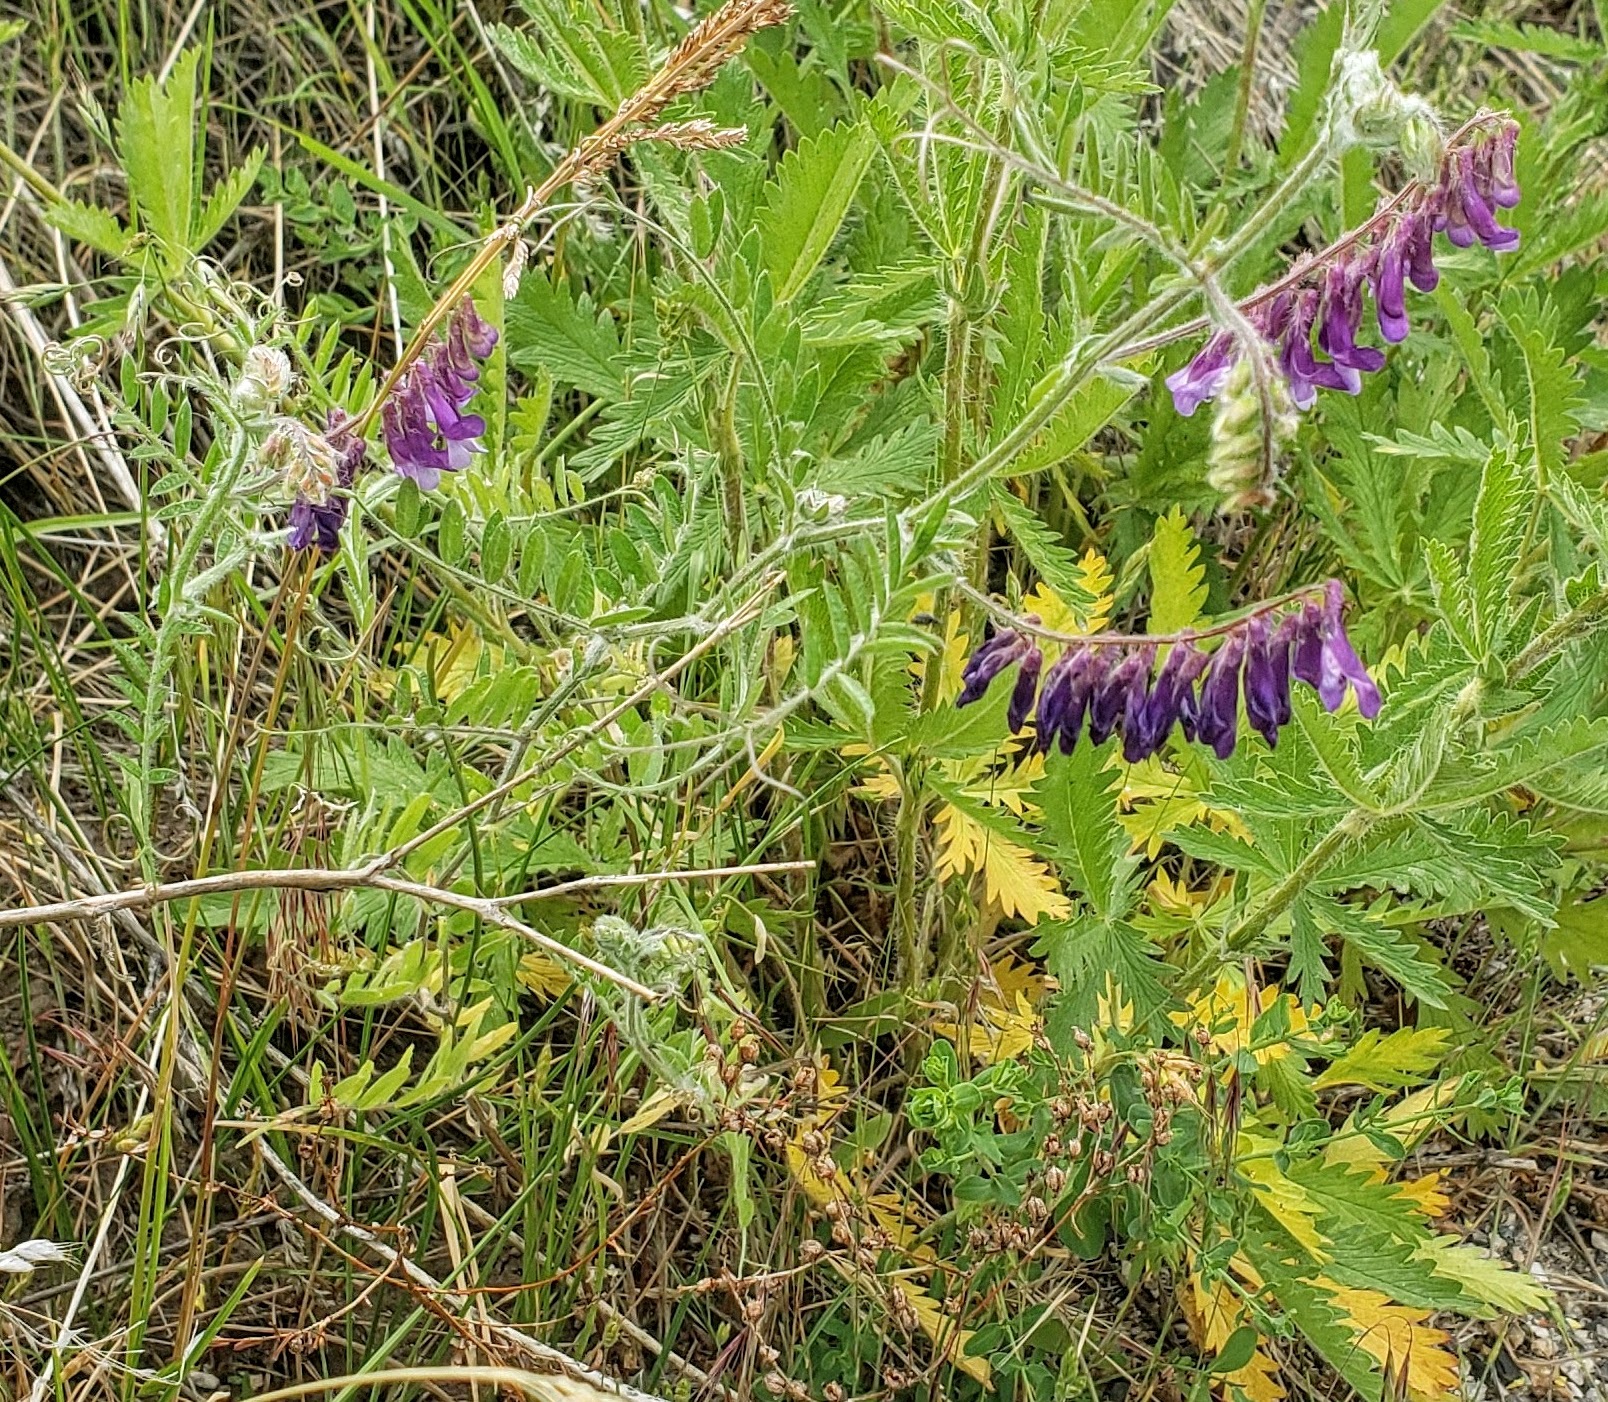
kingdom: Plantae
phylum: Tracheophyta
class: Magnoliopsida
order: Fabales
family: Fabaceae
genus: Vicia
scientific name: Vicia villosa
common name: Fodder vetch
